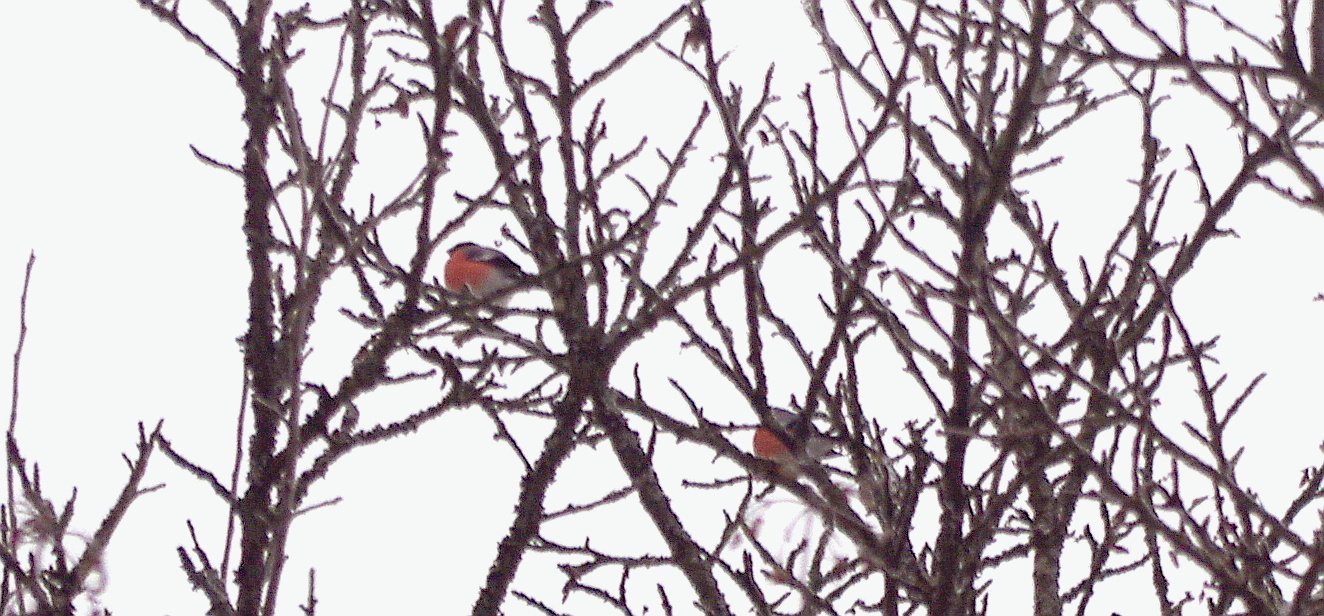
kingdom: Animalia
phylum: Chordata
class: Aves
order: Passeriformes
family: Fringillidae
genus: Pyrrhula
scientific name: Pyrrhula pyrrhula
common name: Eurasian bullfinch
